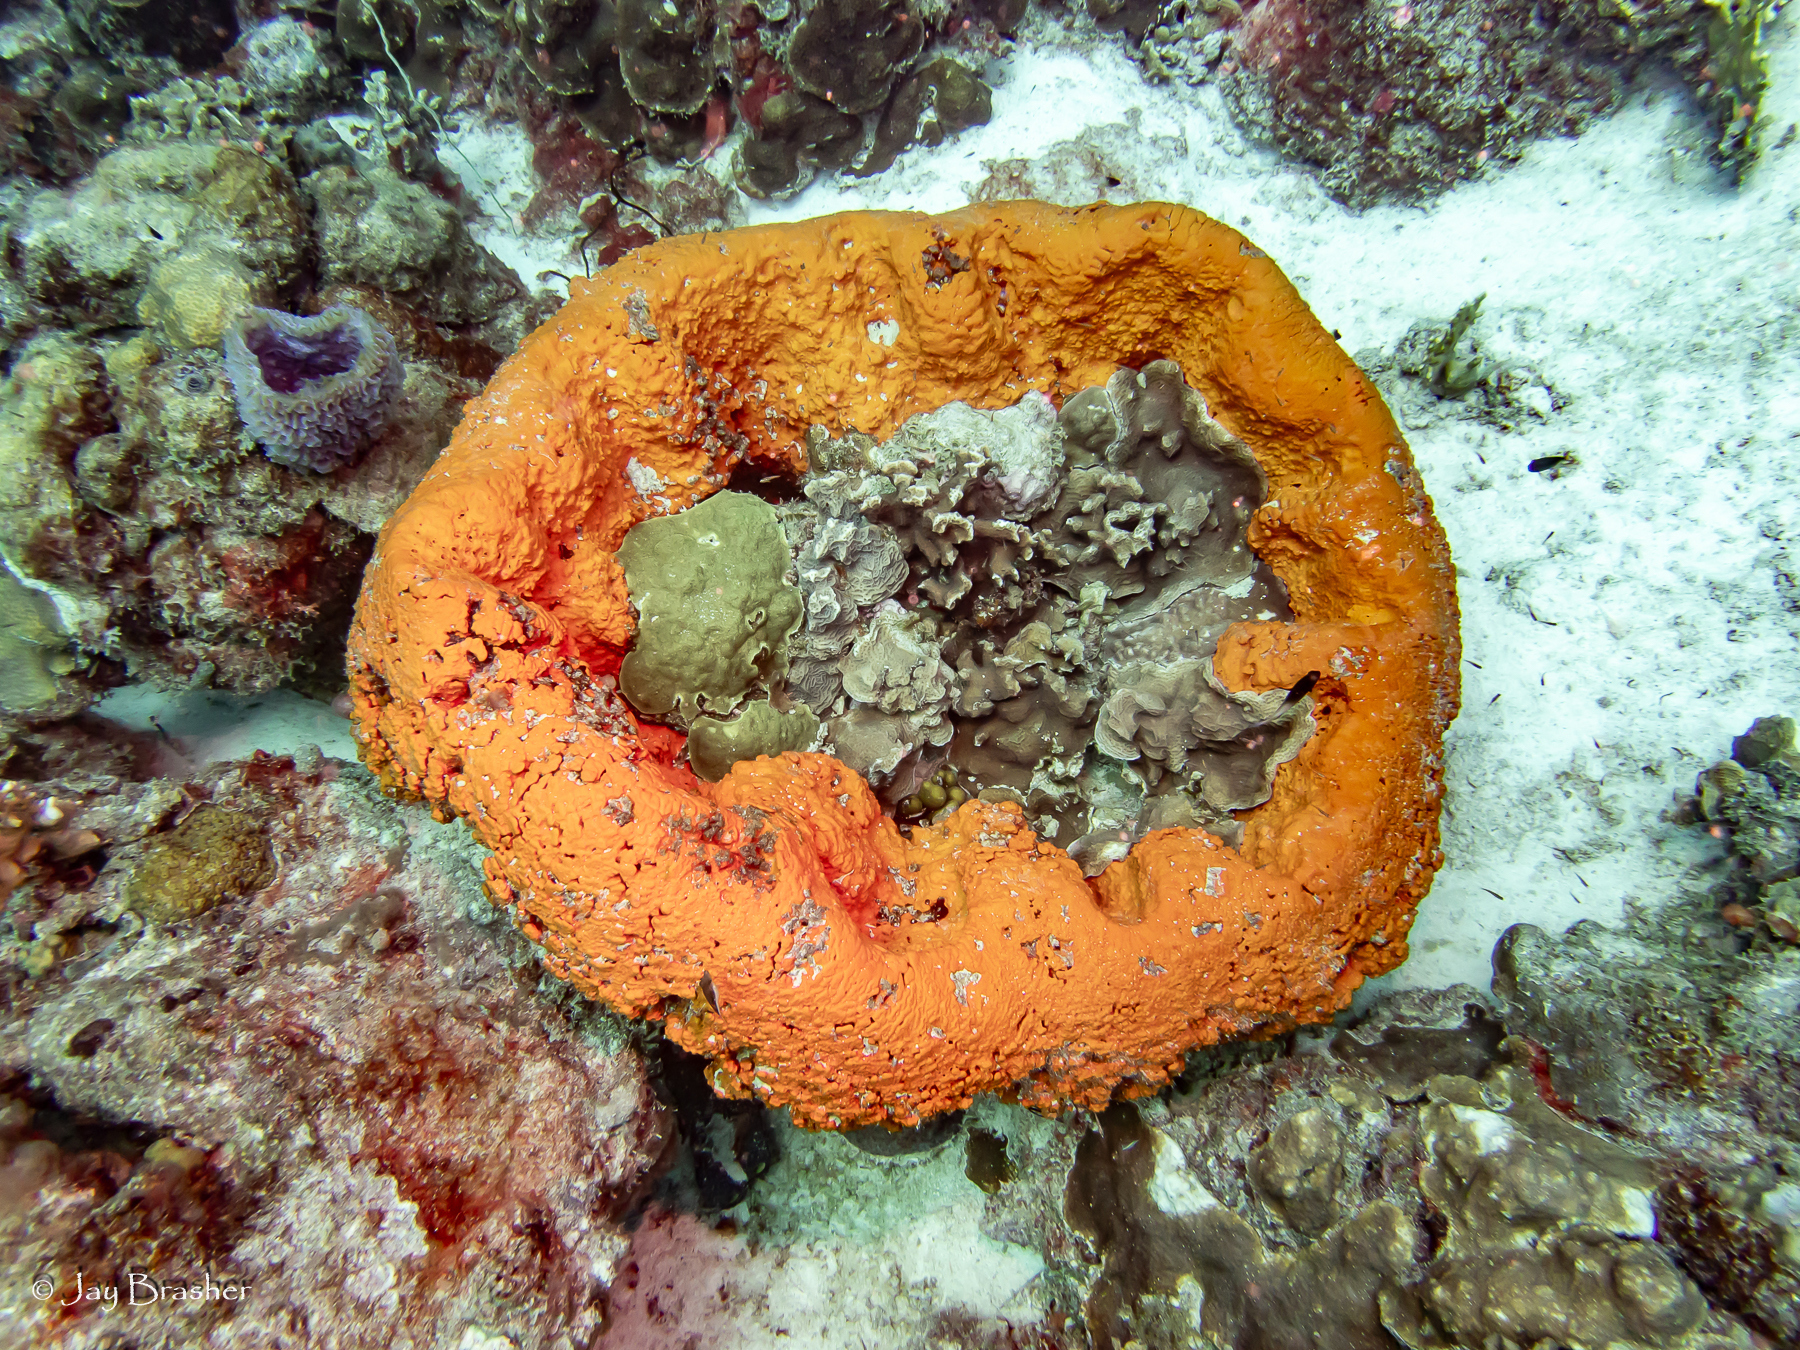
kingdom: Animalia
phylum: Porifera
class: Demospongiae
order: Agelasida
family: Agelasidae
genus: Agelas
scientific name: Agelas clathrodes
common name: Orange elephant ear sponge
